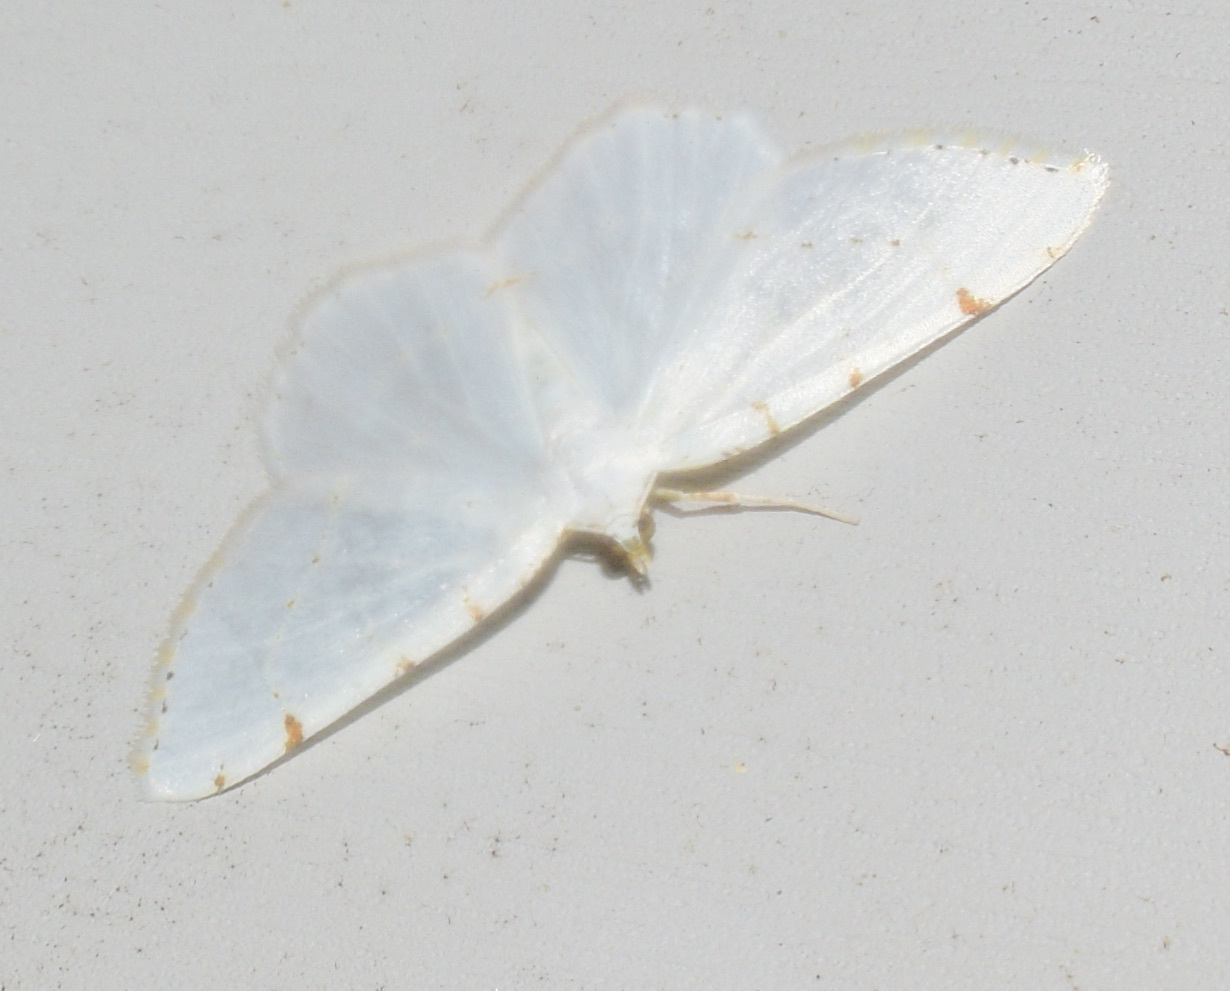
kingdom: Animalia
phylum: Arthropoda
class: Insecta
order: Lepidoptera
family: Geometridae
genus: Macaria
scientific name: Macaria pustularia
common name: Lesser maple spanworm moth
